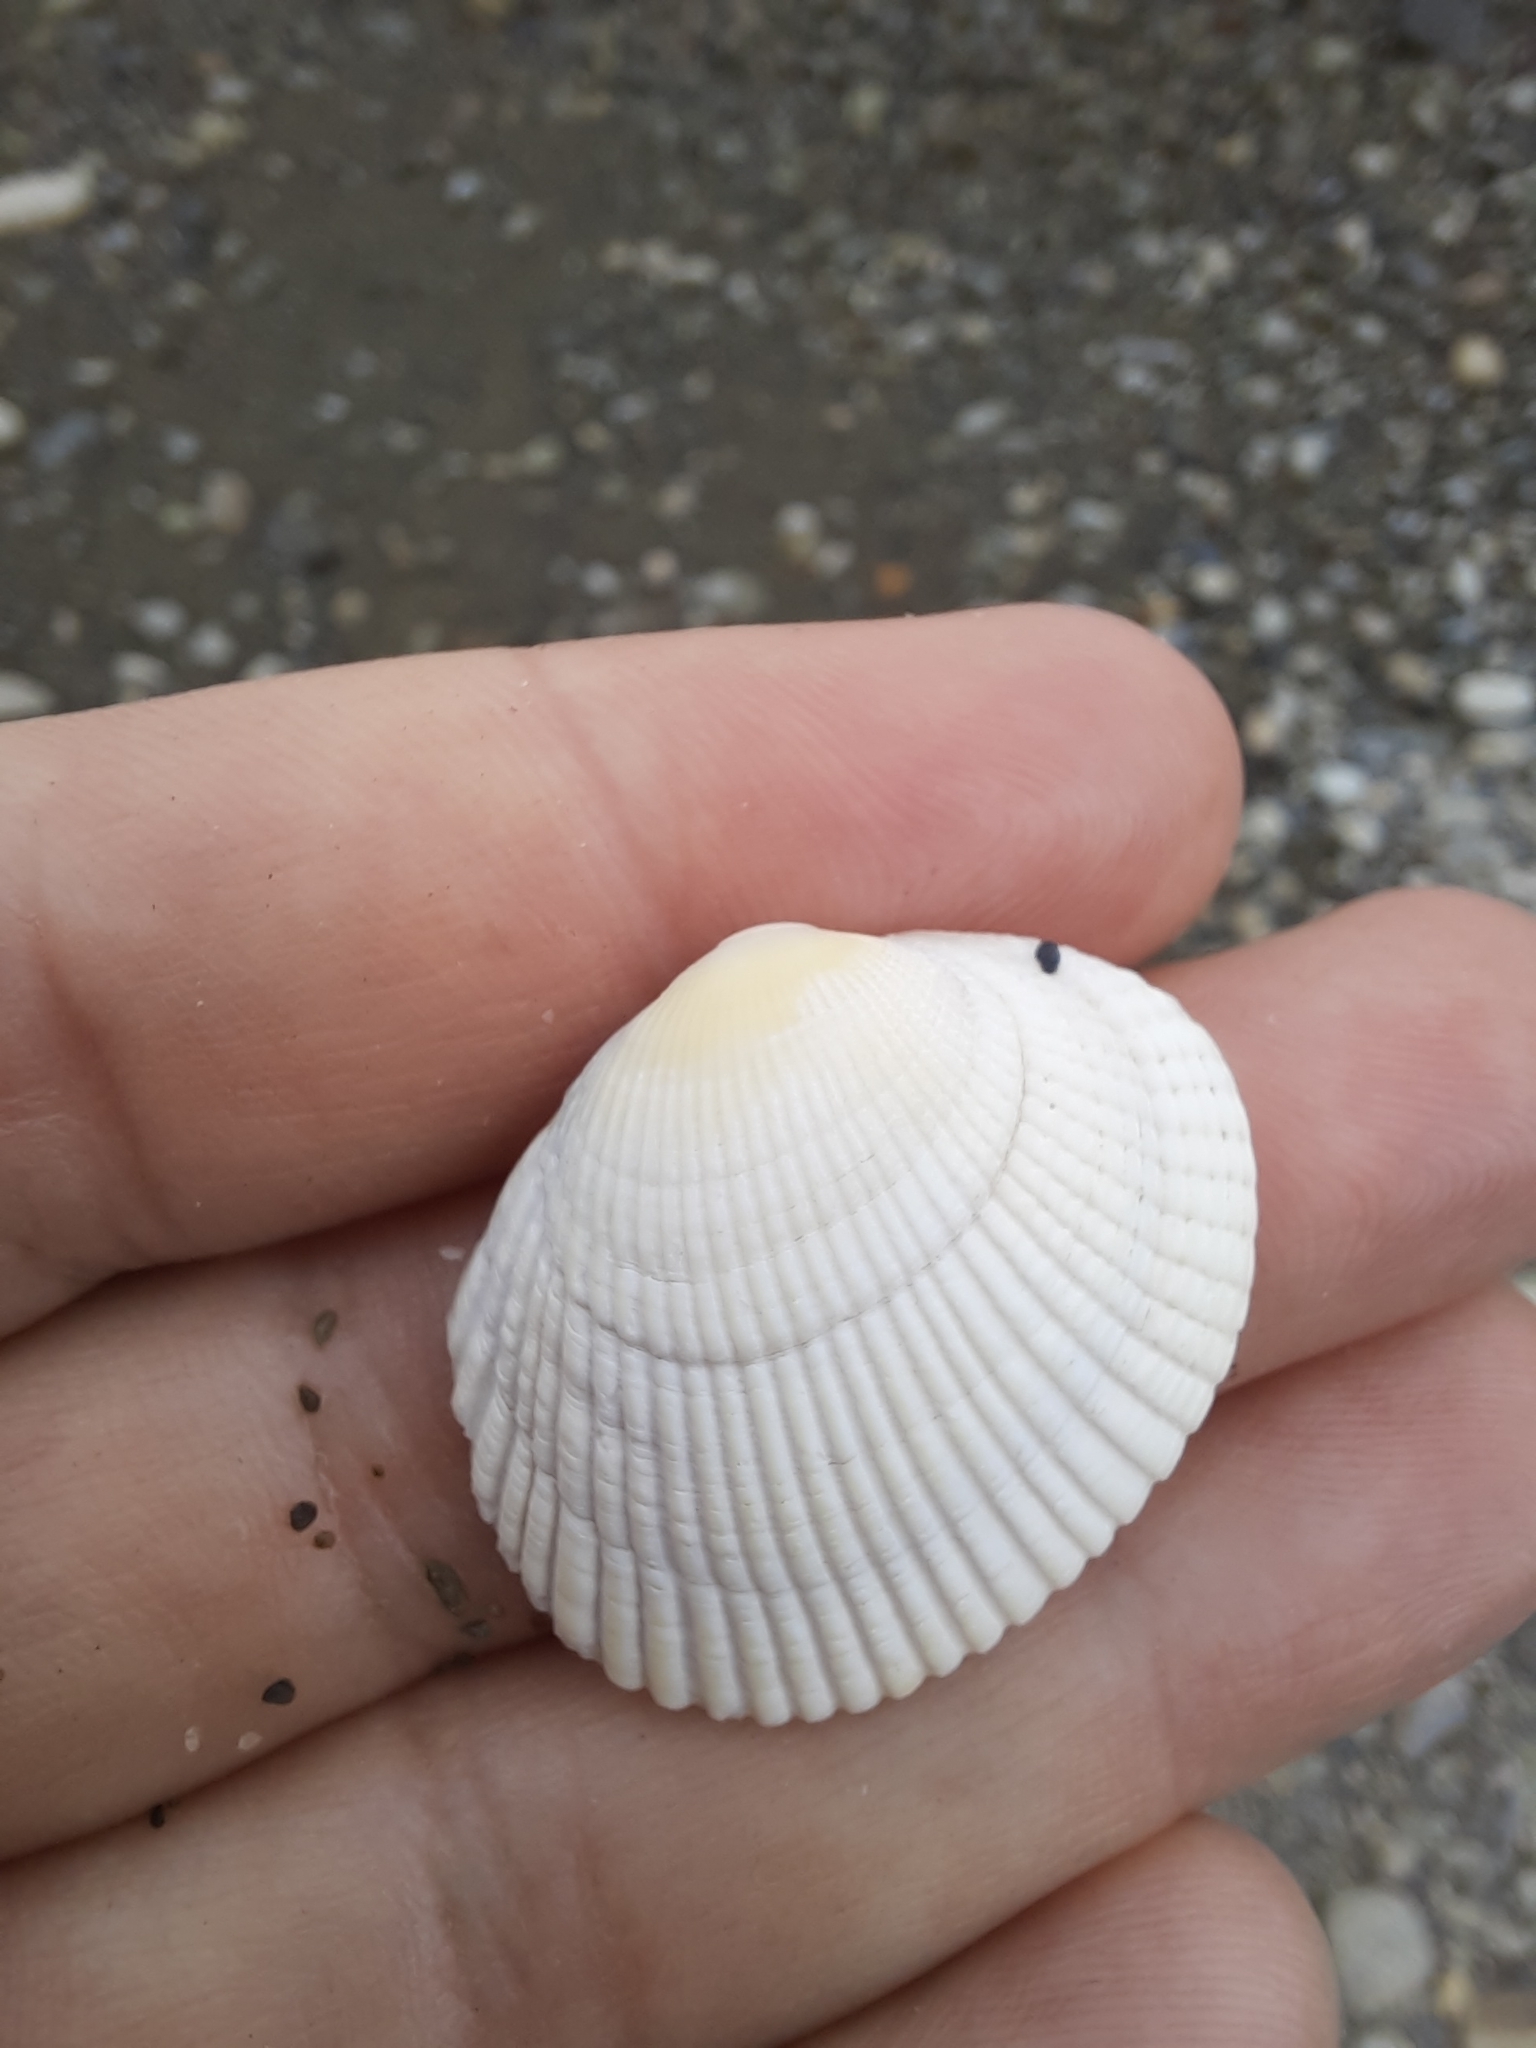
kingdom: Animalia
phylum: Mollusca
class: Bivalvia
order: Venerida
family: Veneridae
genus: Leukoma
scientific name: Leukoma crassicosta
